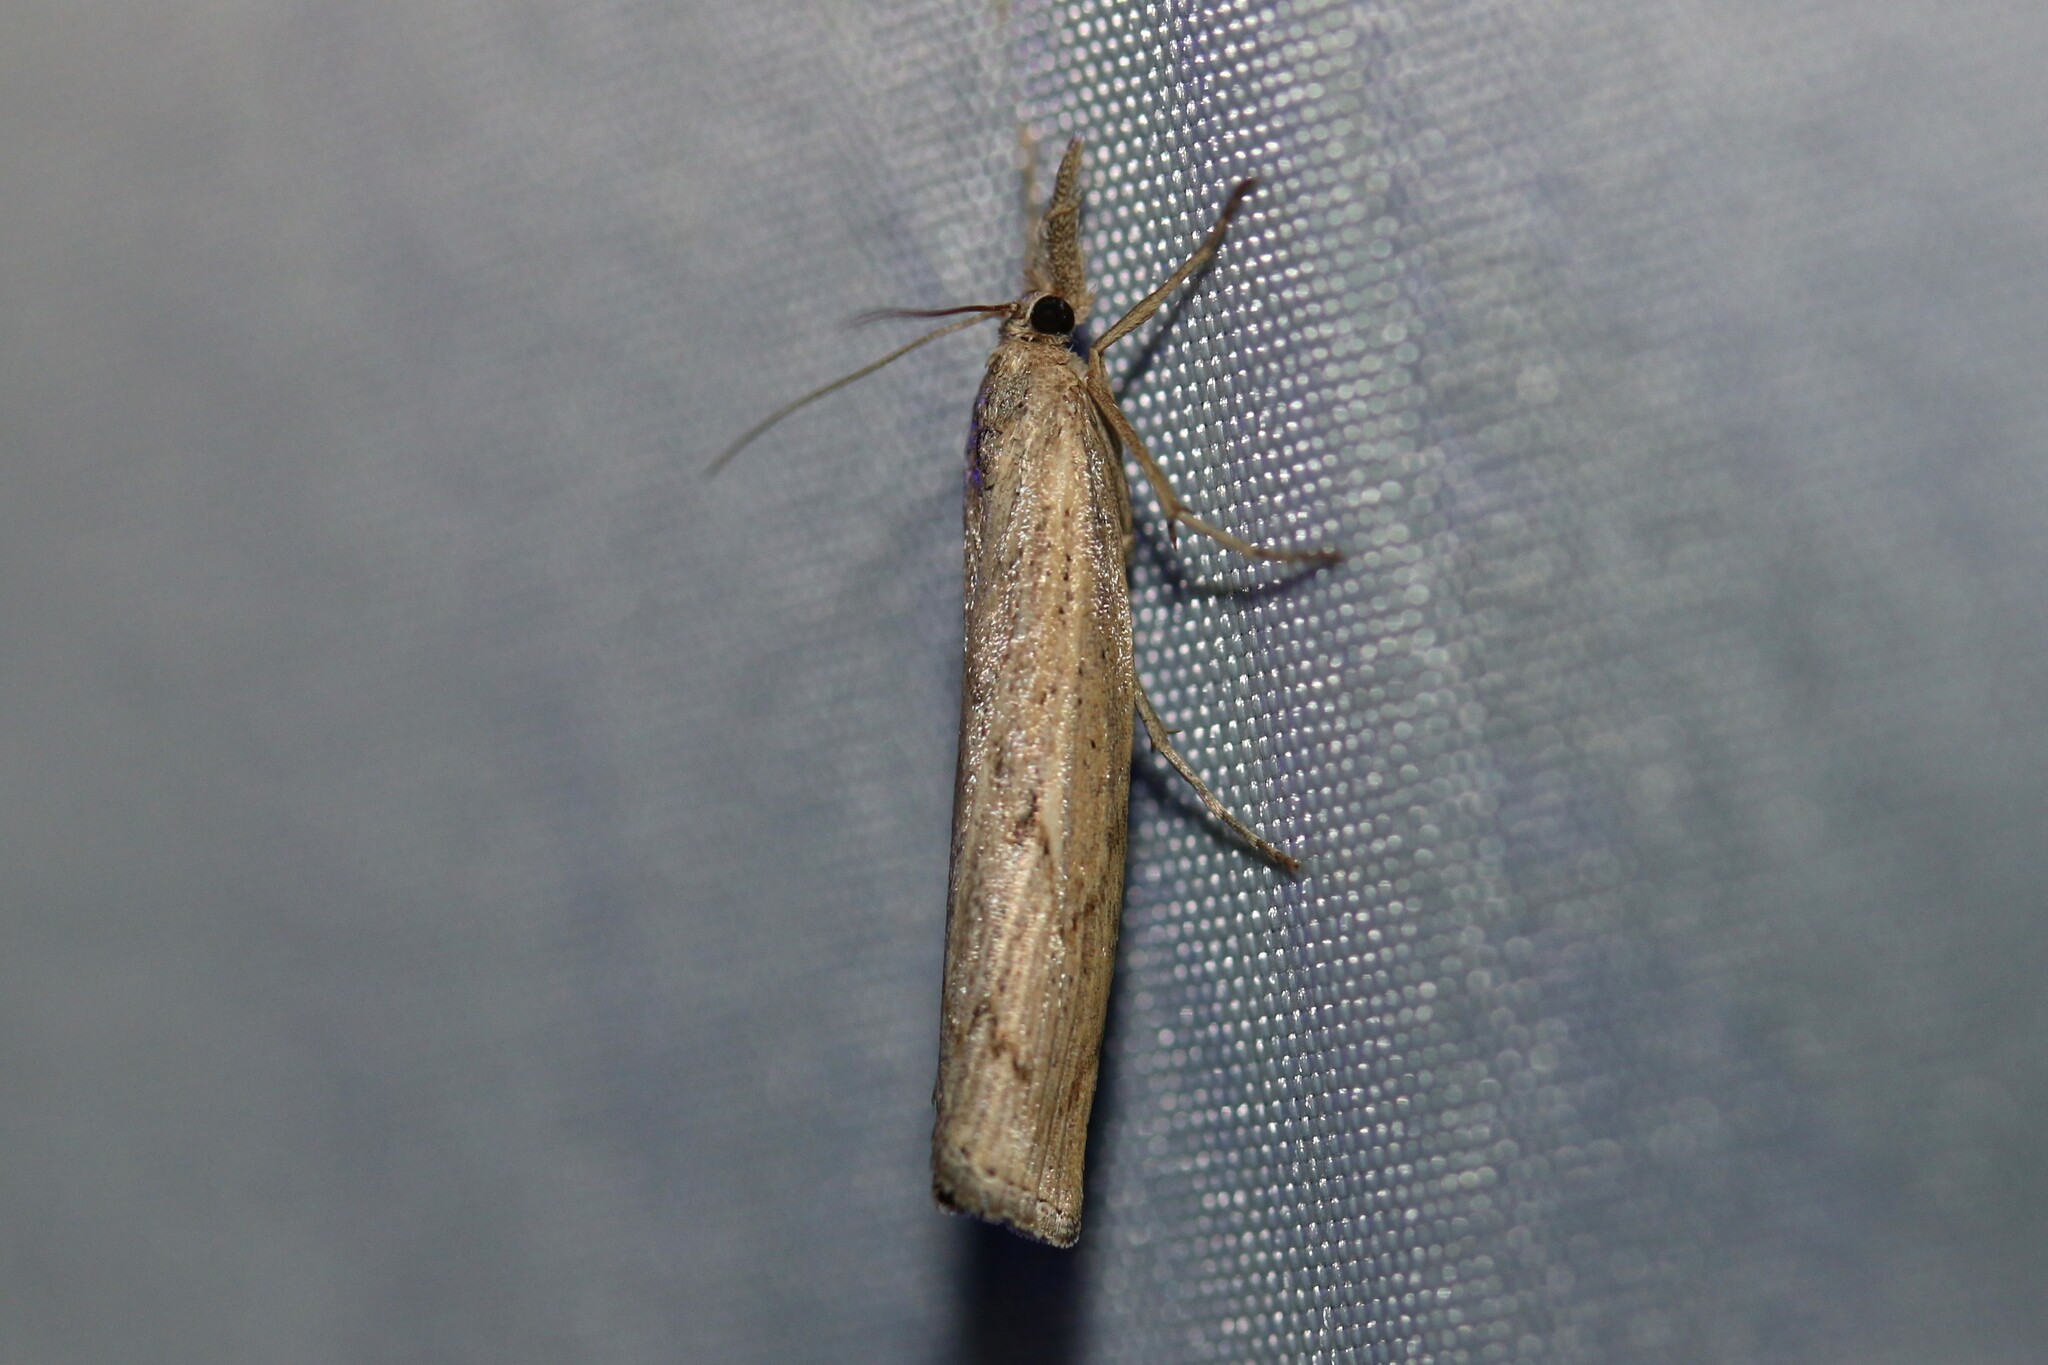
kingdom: Animalia
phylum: Arthropoda
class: Insecta
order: Lepidoptera
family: Crambidae
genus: Pediasia
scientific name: Pediasia contaminella
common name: Waste grass-veneer
